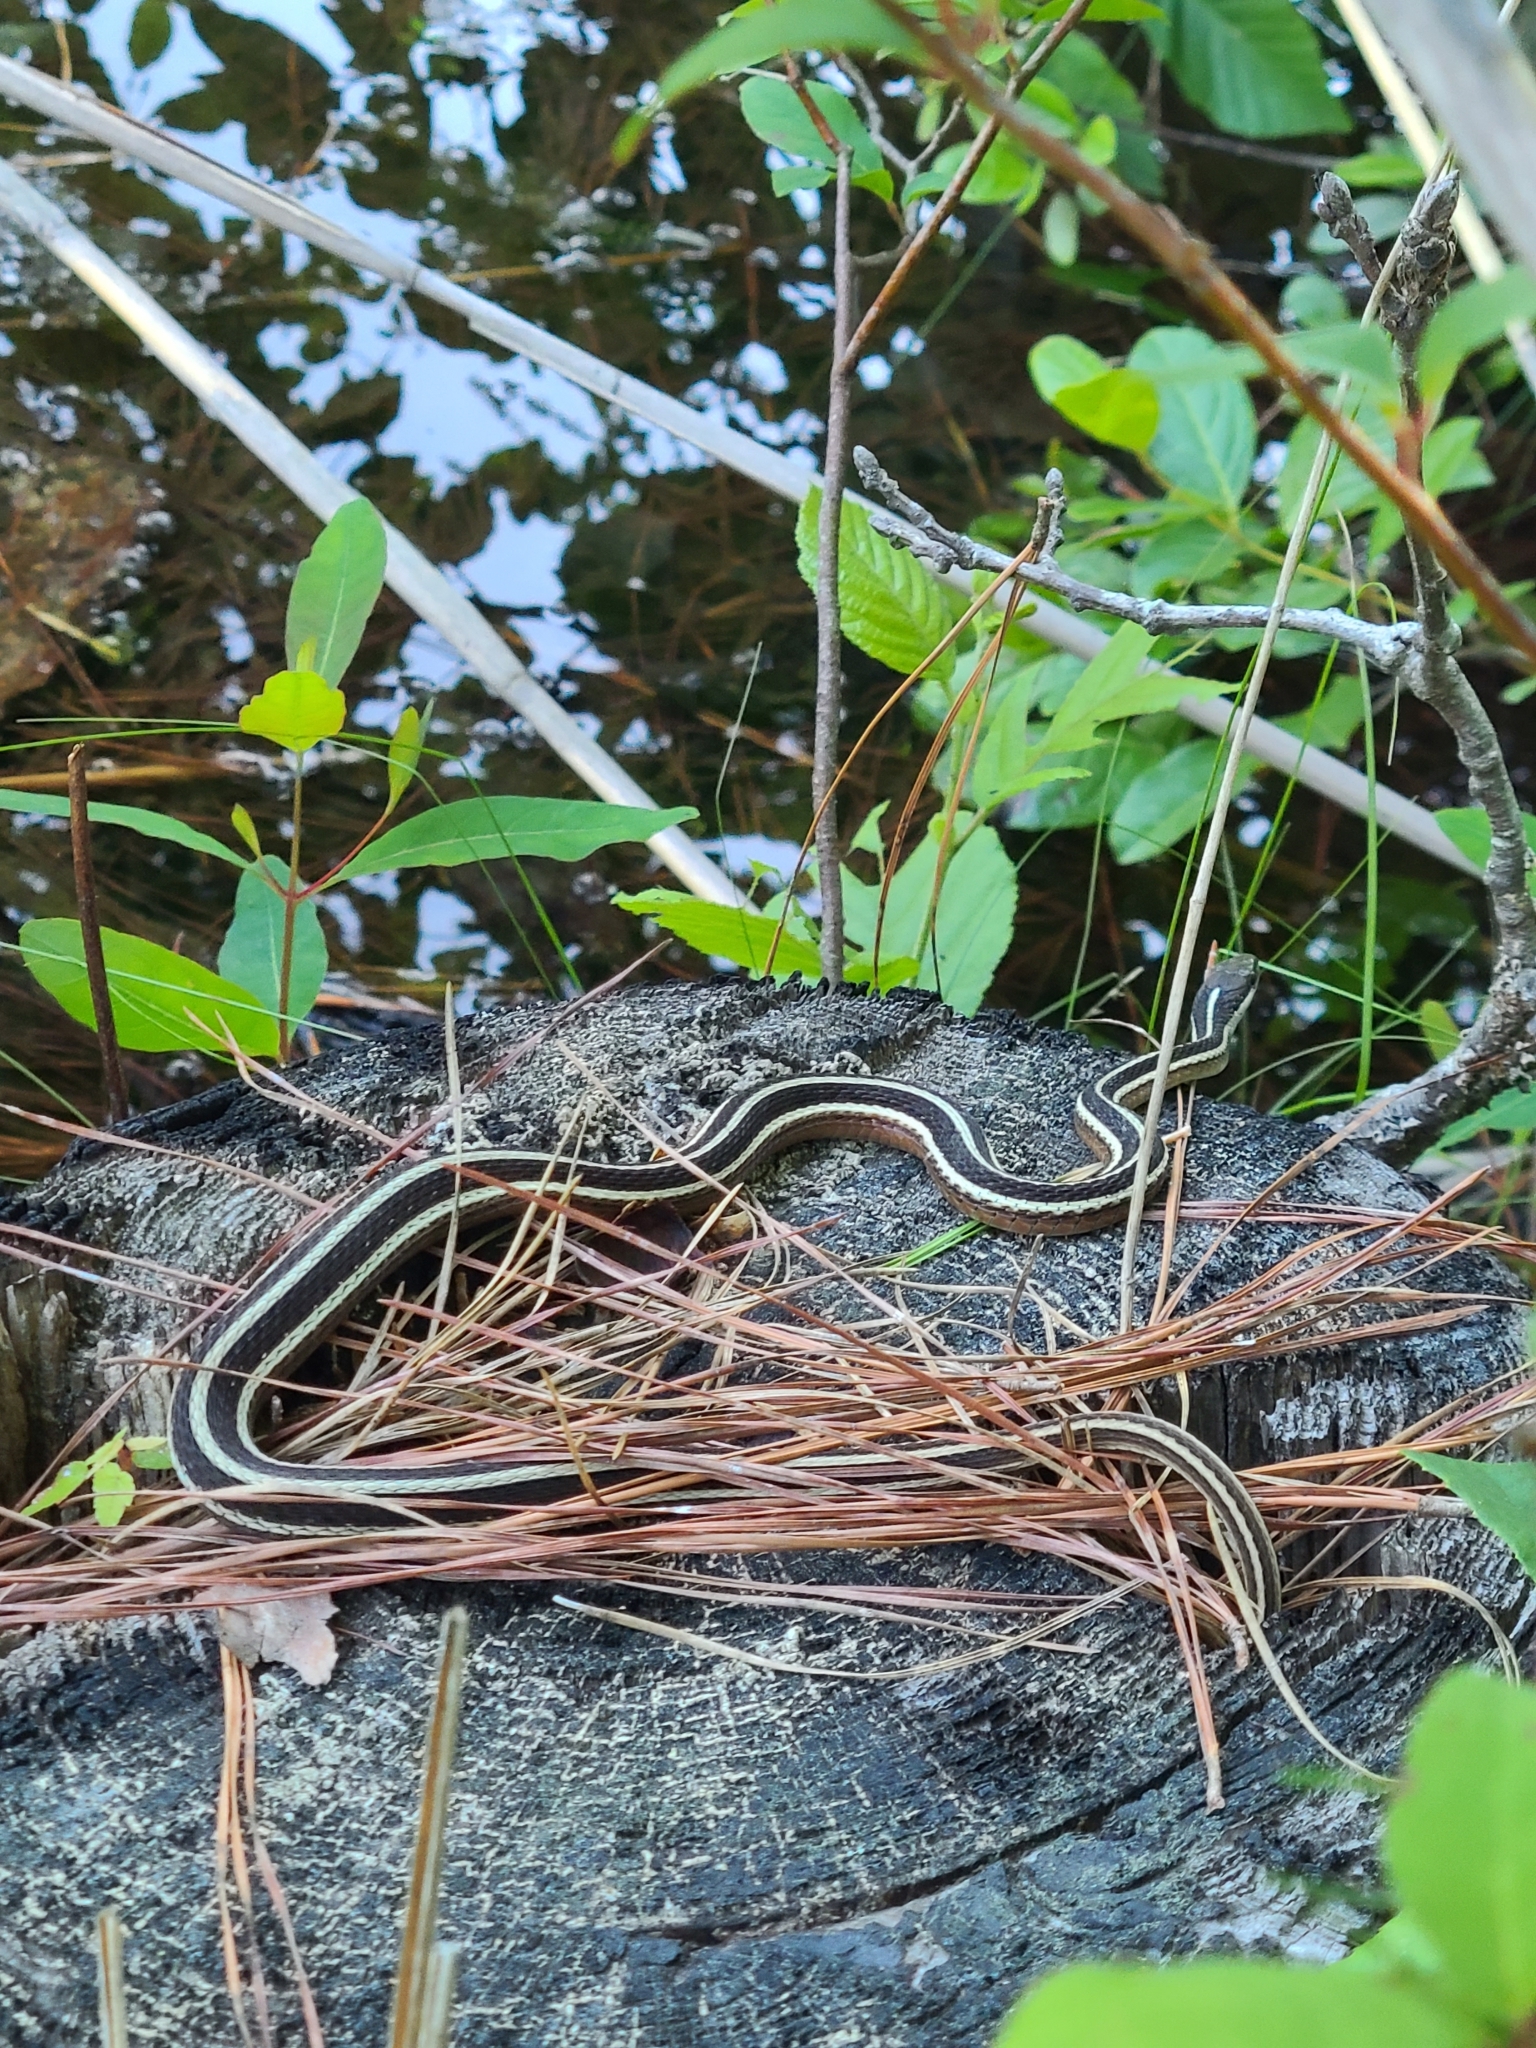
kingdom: Animalia
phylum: Chordata
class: Squamata
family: Colubridae
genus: Thamnophis
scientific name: Thamnophis saurita
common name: Eastern ribbonsnake
